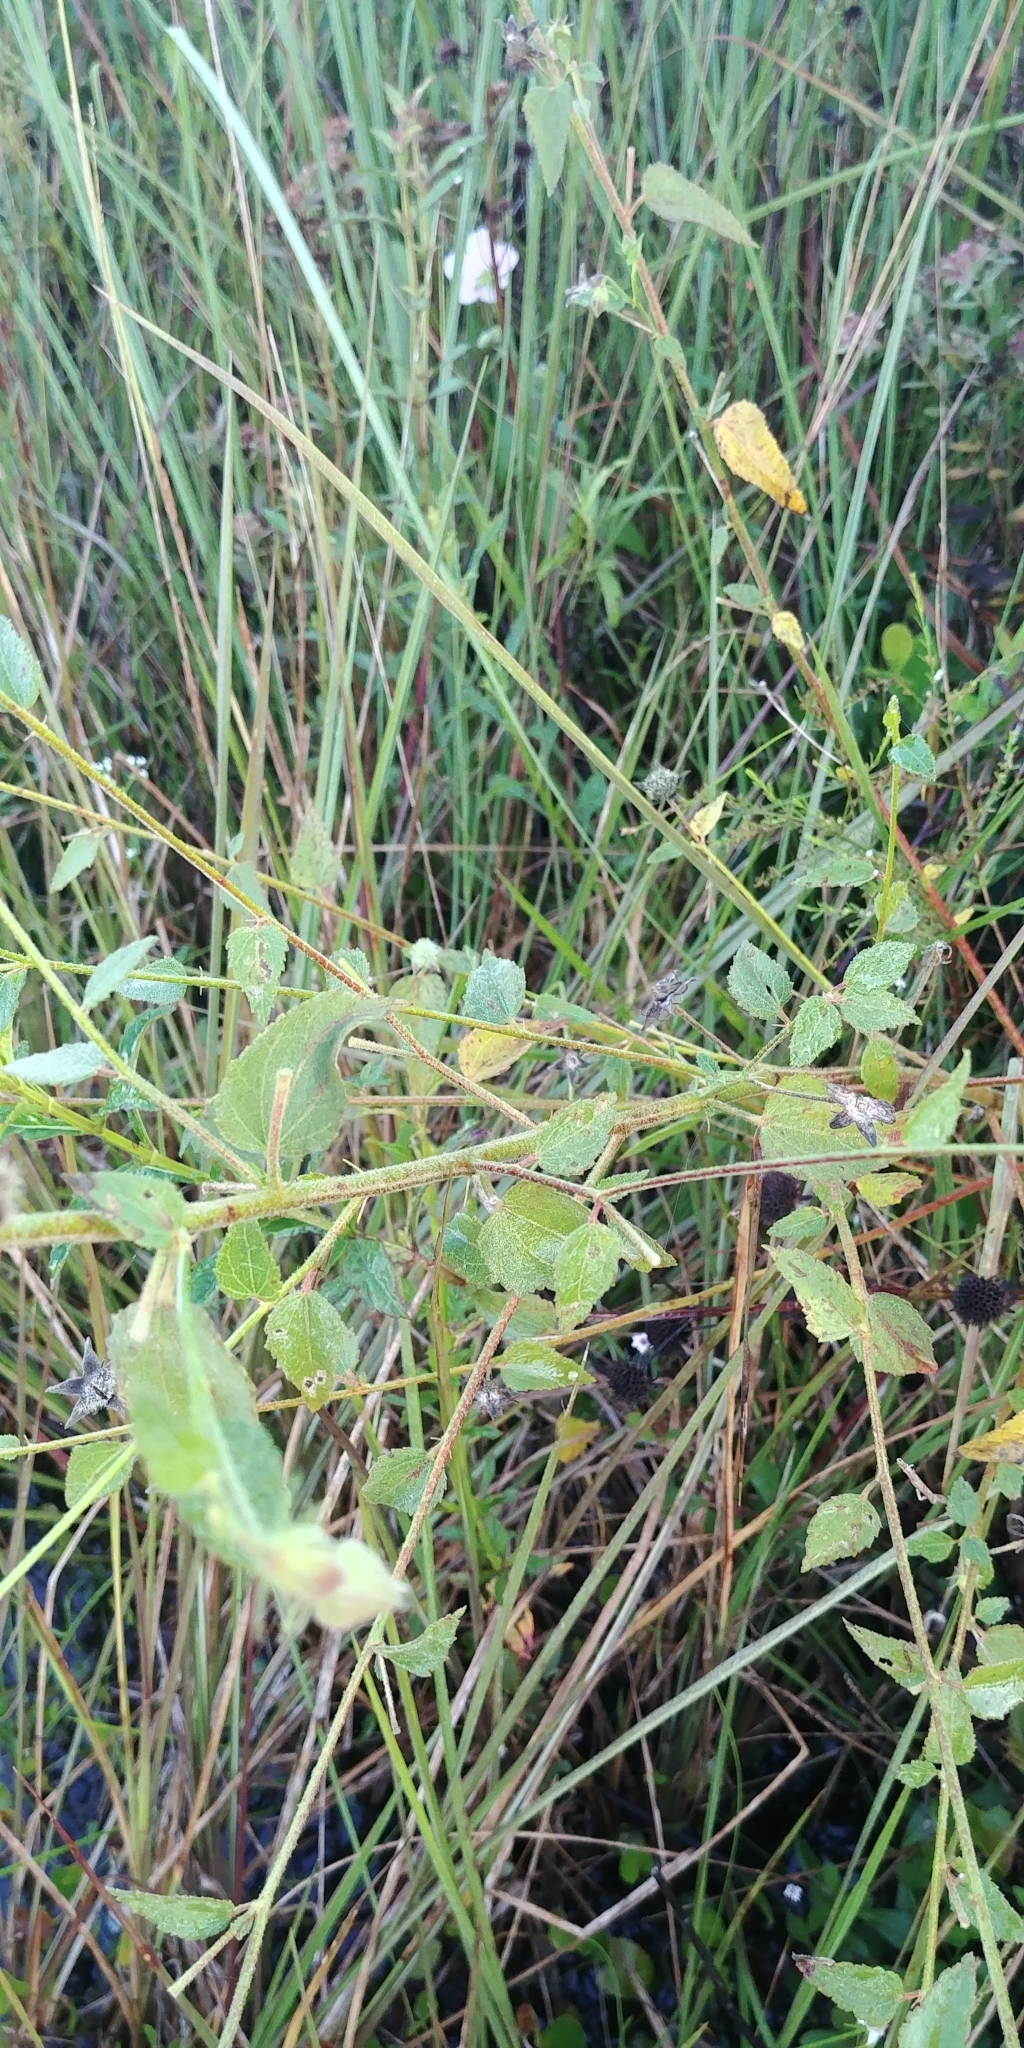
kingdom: Plantae
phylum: Tracheophyta
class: Magnoliopsida
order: Malvales
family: Malvaceae
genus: Kosteletzkya
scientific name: Kosteletzkya pentacarpos
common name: Virginia saltmarsh mallow
